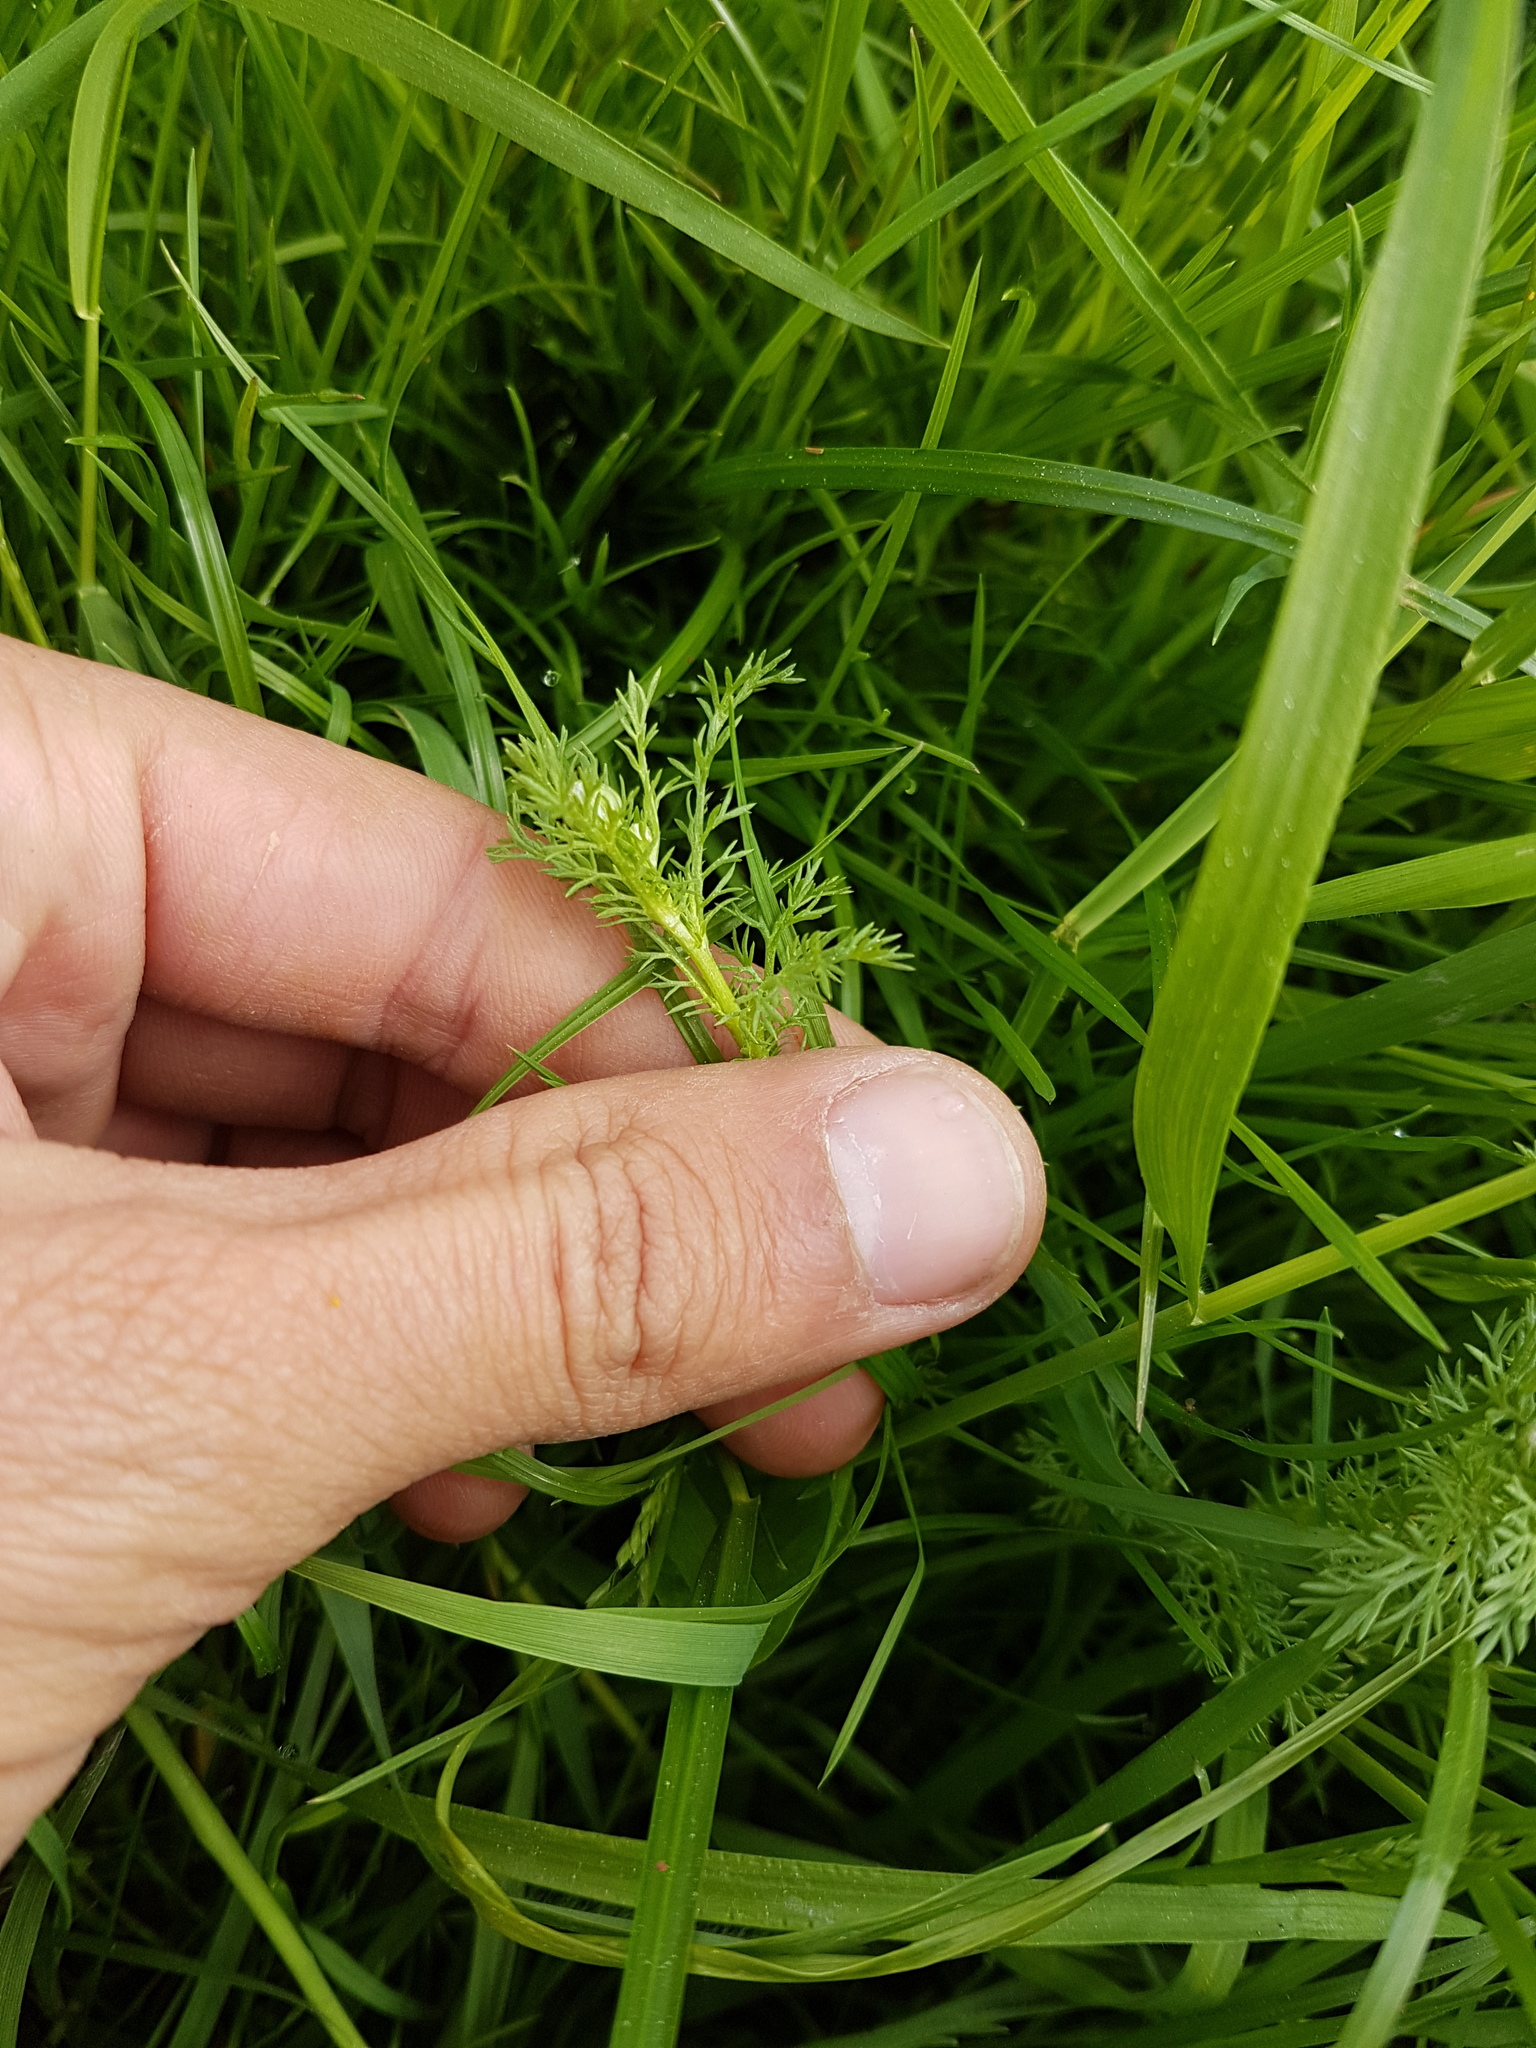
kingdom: Plantae
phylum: Tracheophyta
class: Magnoliopsida
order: Asterales
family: Asteraceae
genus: Matricaria
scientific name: Matricaria chamomilla
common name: Scented mayweed
